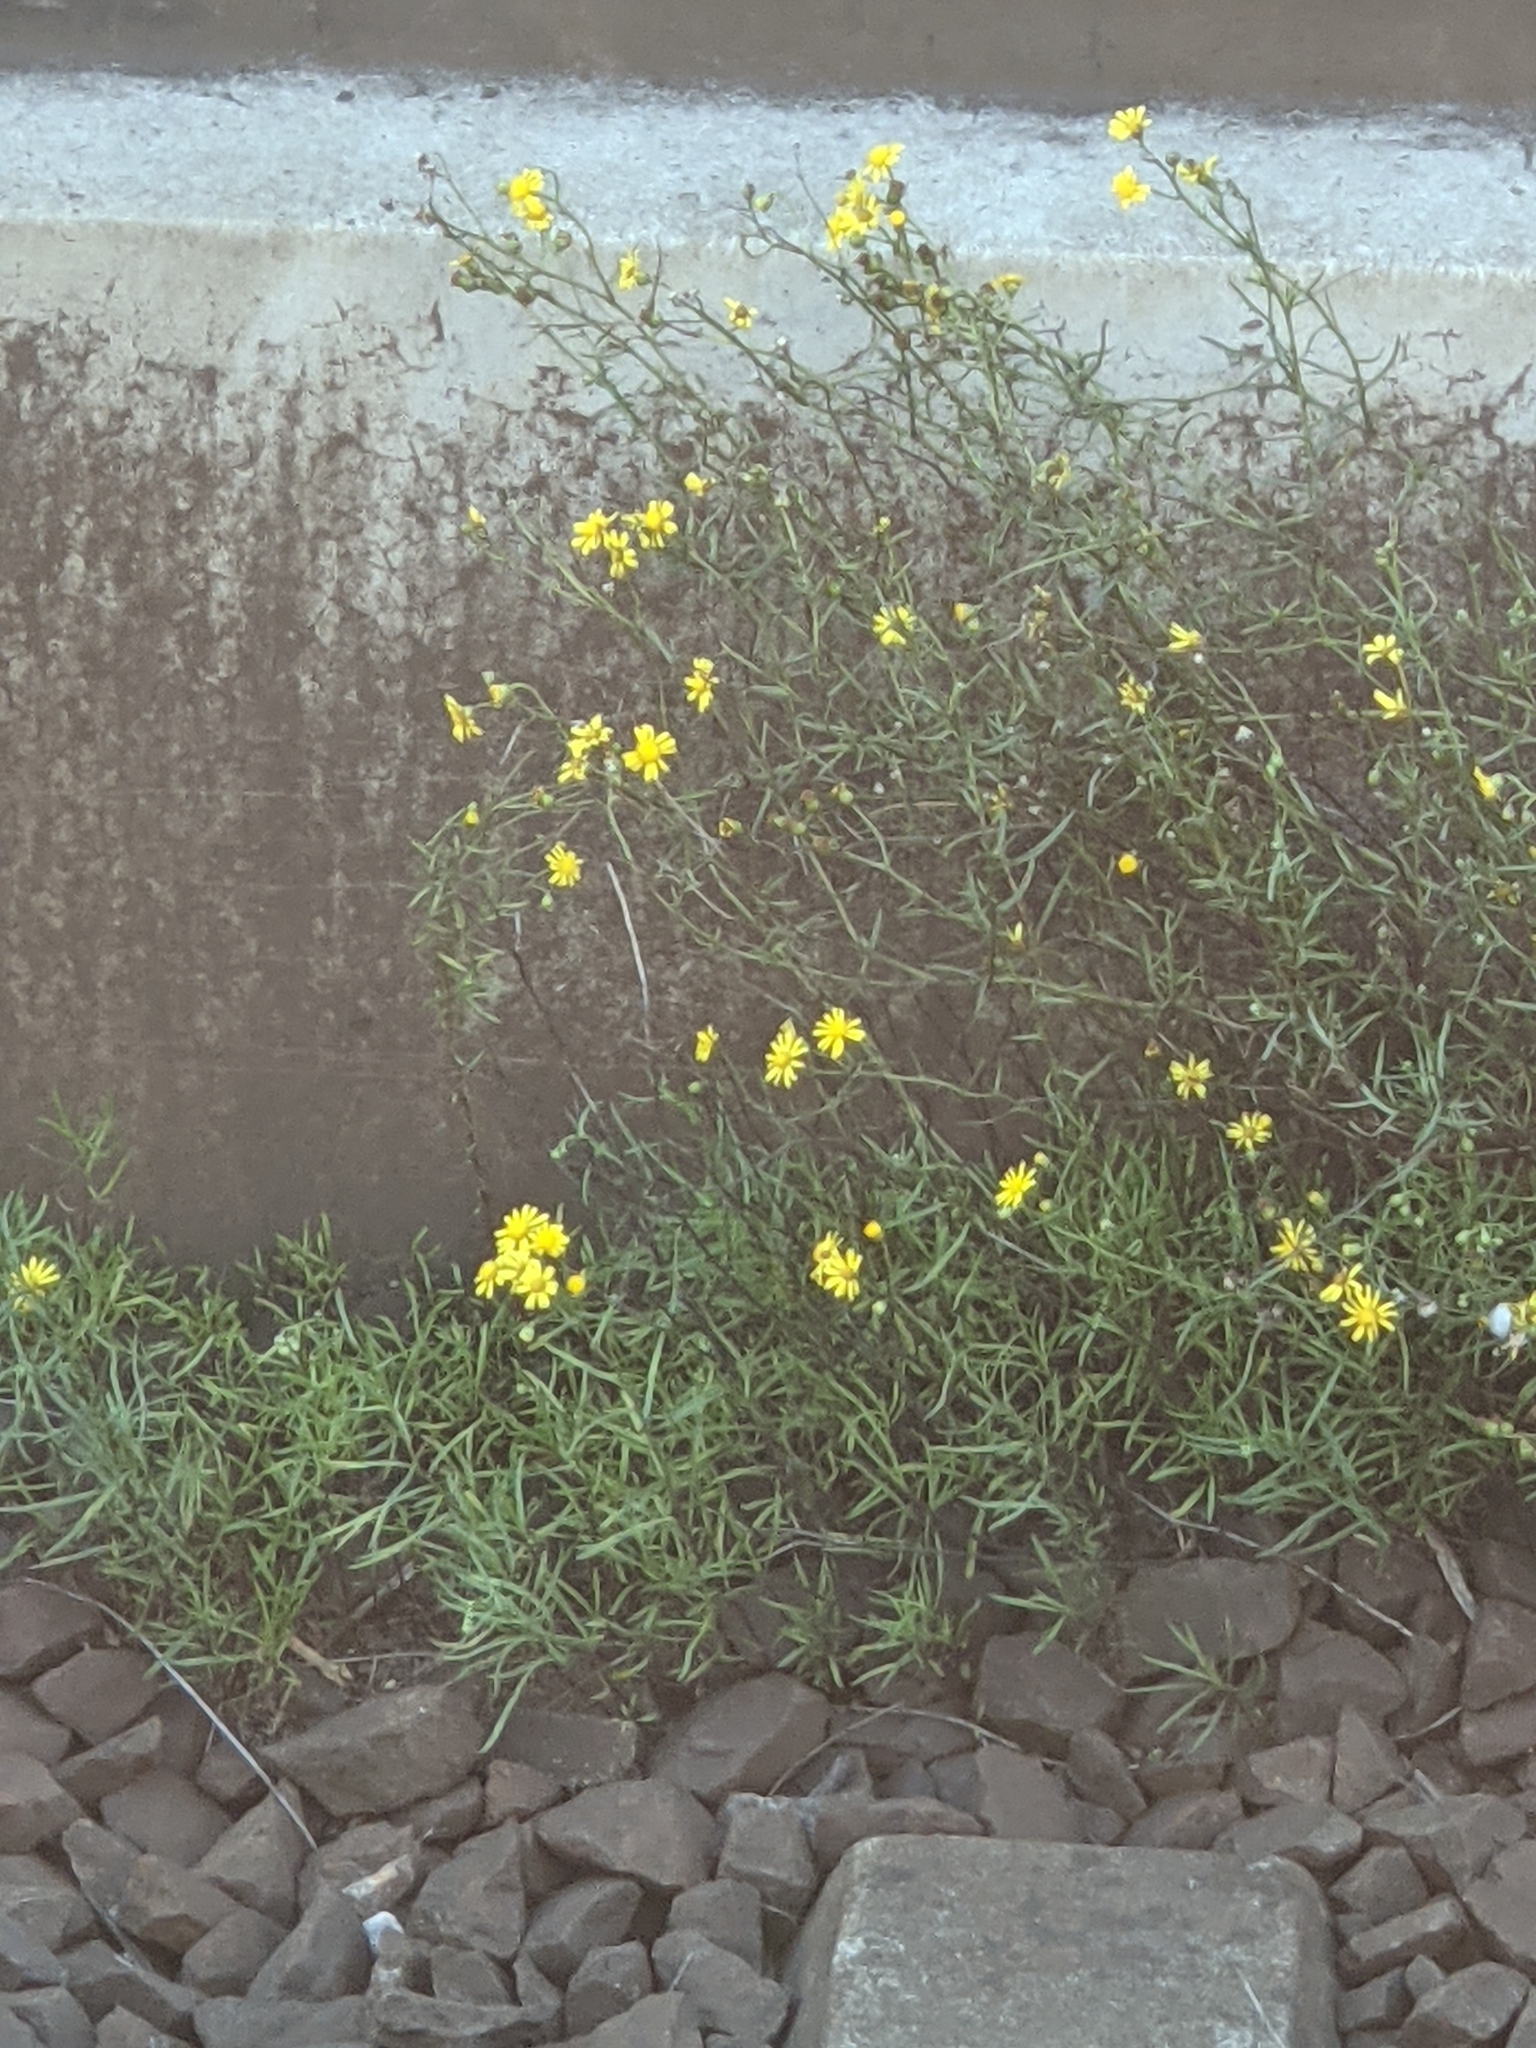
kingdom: Plantae
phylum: Tracheophyta
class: Magnoliopsida
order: Asterales
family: Asteraceae
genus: Senecio
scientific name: Senecio inaequidens
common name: Narrow-leaved ragwort
